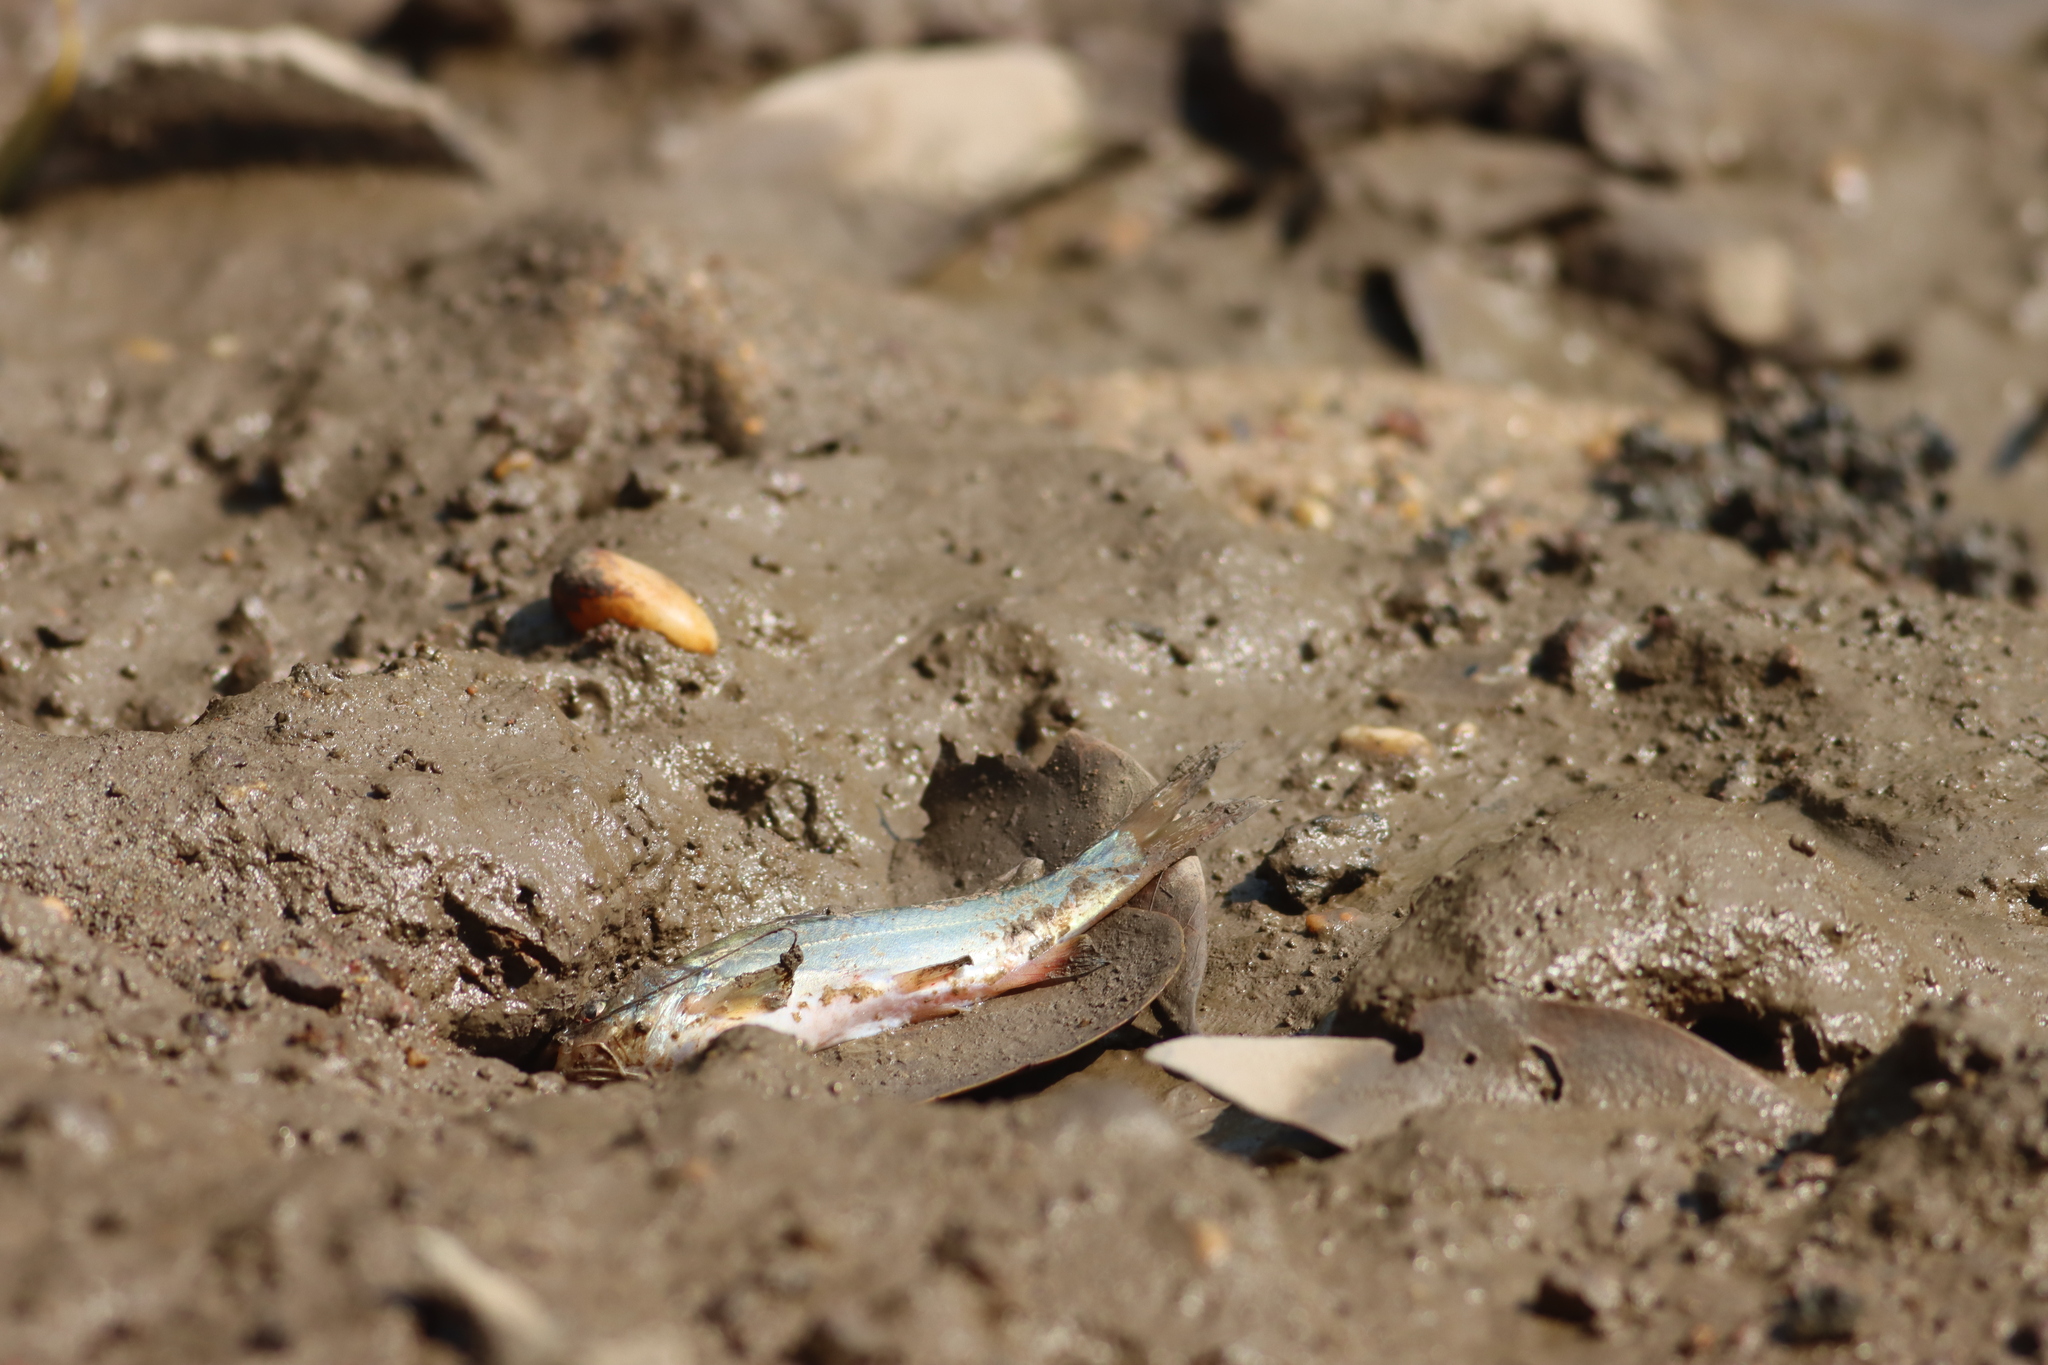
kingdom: Animalia
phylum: Chordata
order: Siluriformes
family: Bagridae
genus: Mystus
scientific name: Mystus gulio
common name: Long whiskers catfish
